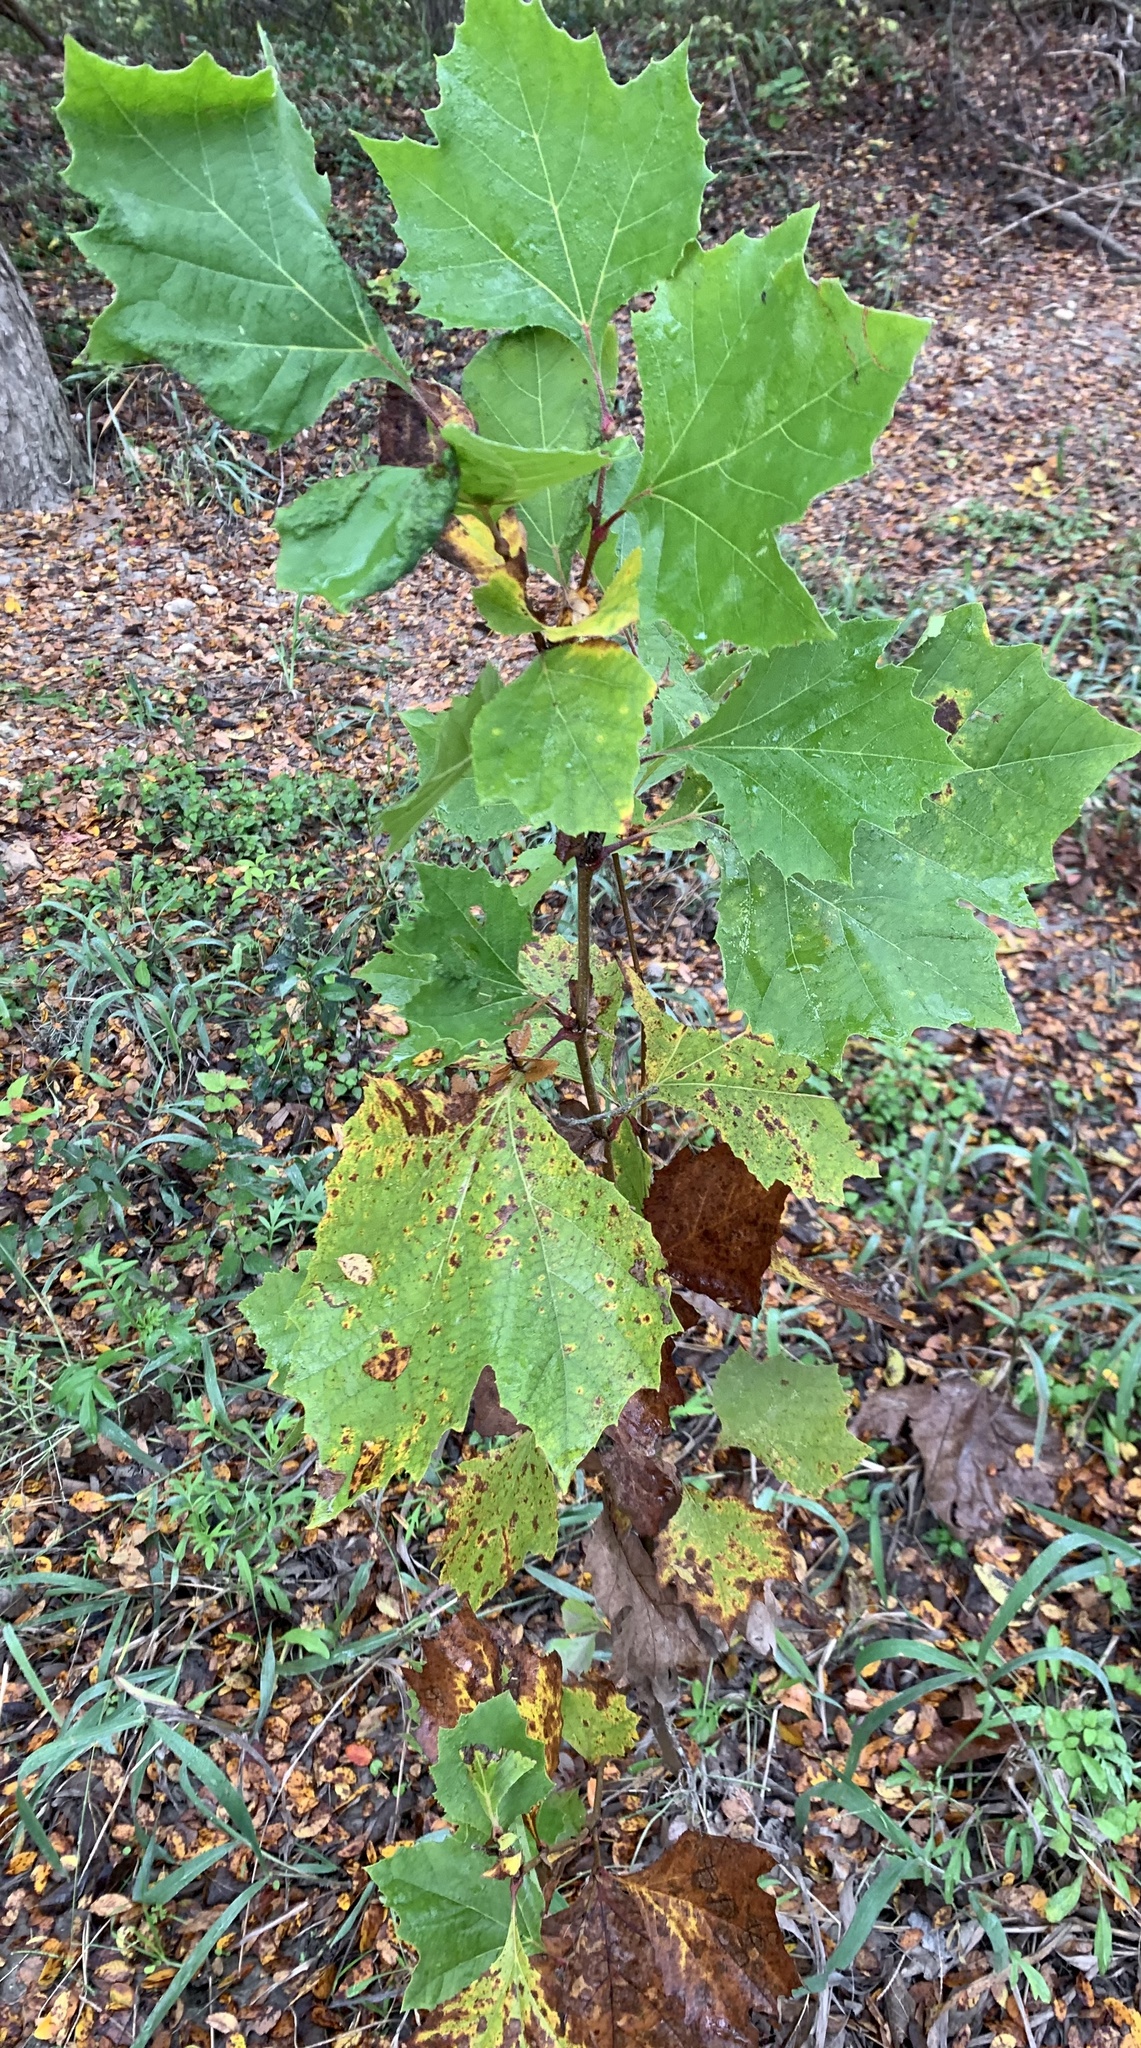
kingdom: Plantae
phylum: Tracheophyta
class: Magnoliopsida
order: Proteales
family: Platanaceae
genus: Platanus
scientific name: Platanus occidentalis
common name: American sycamore
